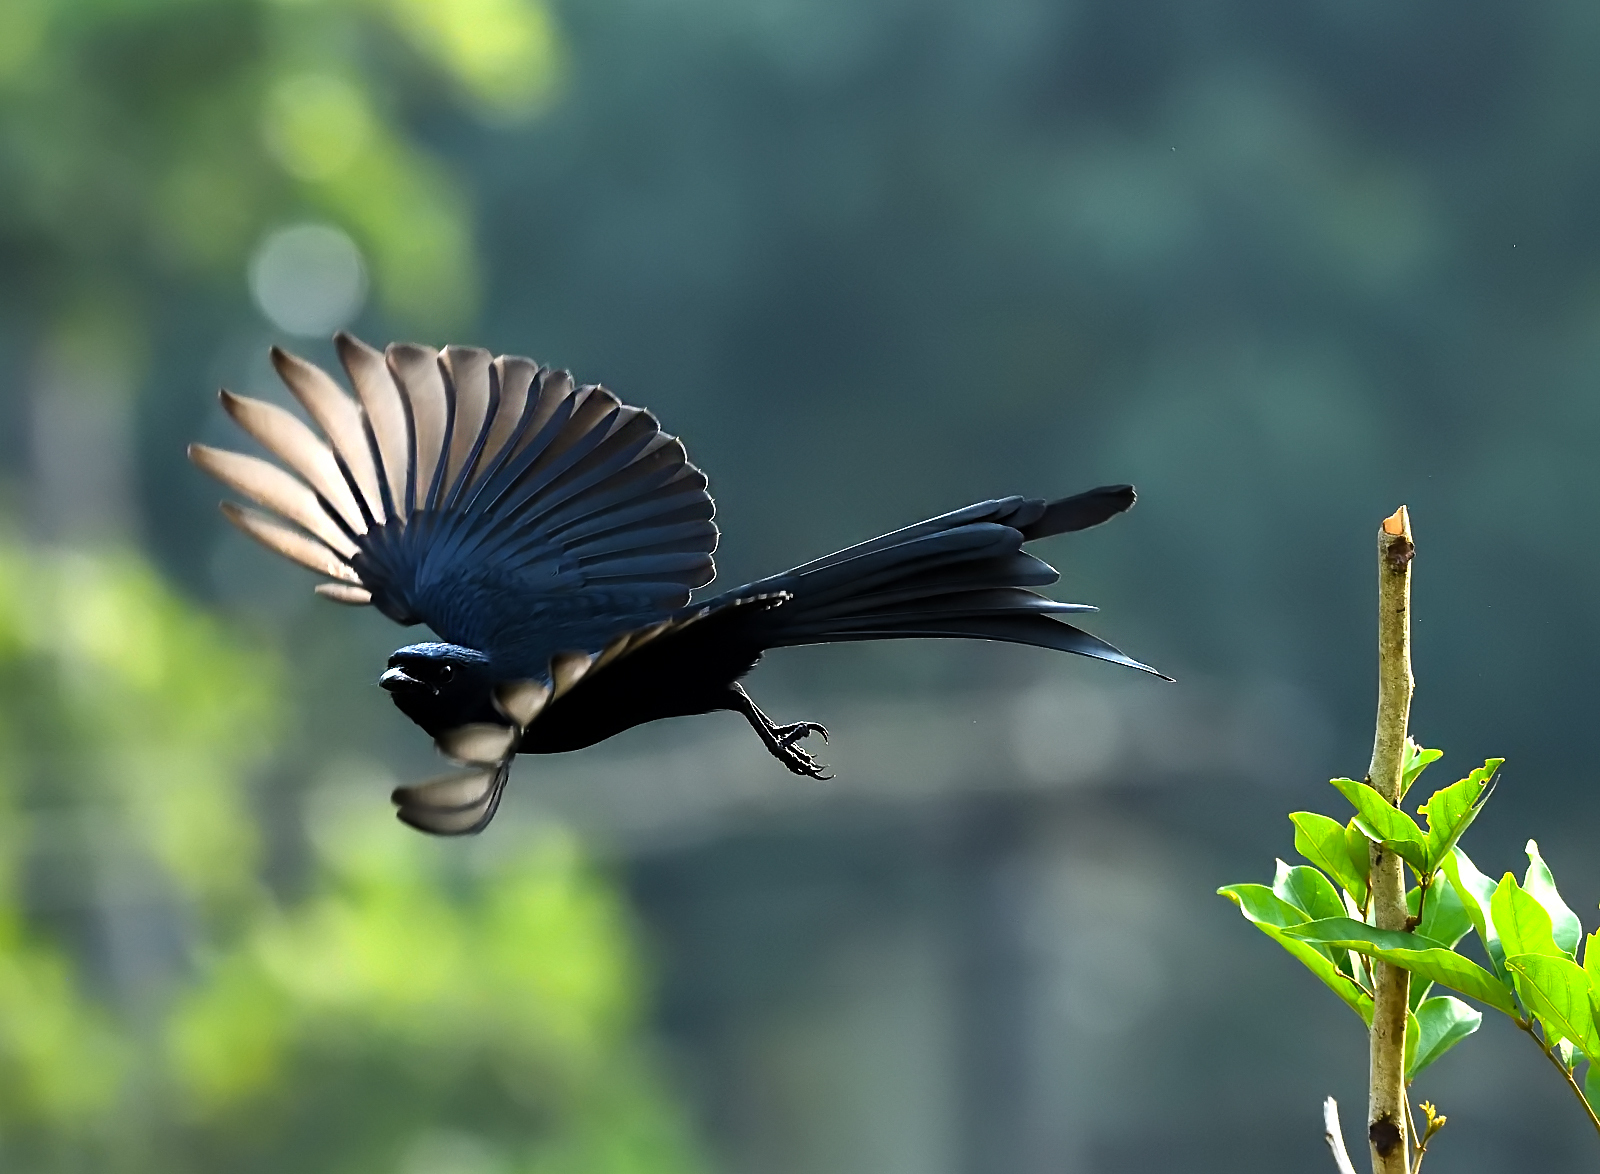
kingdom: Animalia
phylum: Chordata
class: Aves
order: Passeriformes
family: Dicruridae
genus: Dicrurus
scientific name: Dicrurus macrocercus
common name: Black drongo
